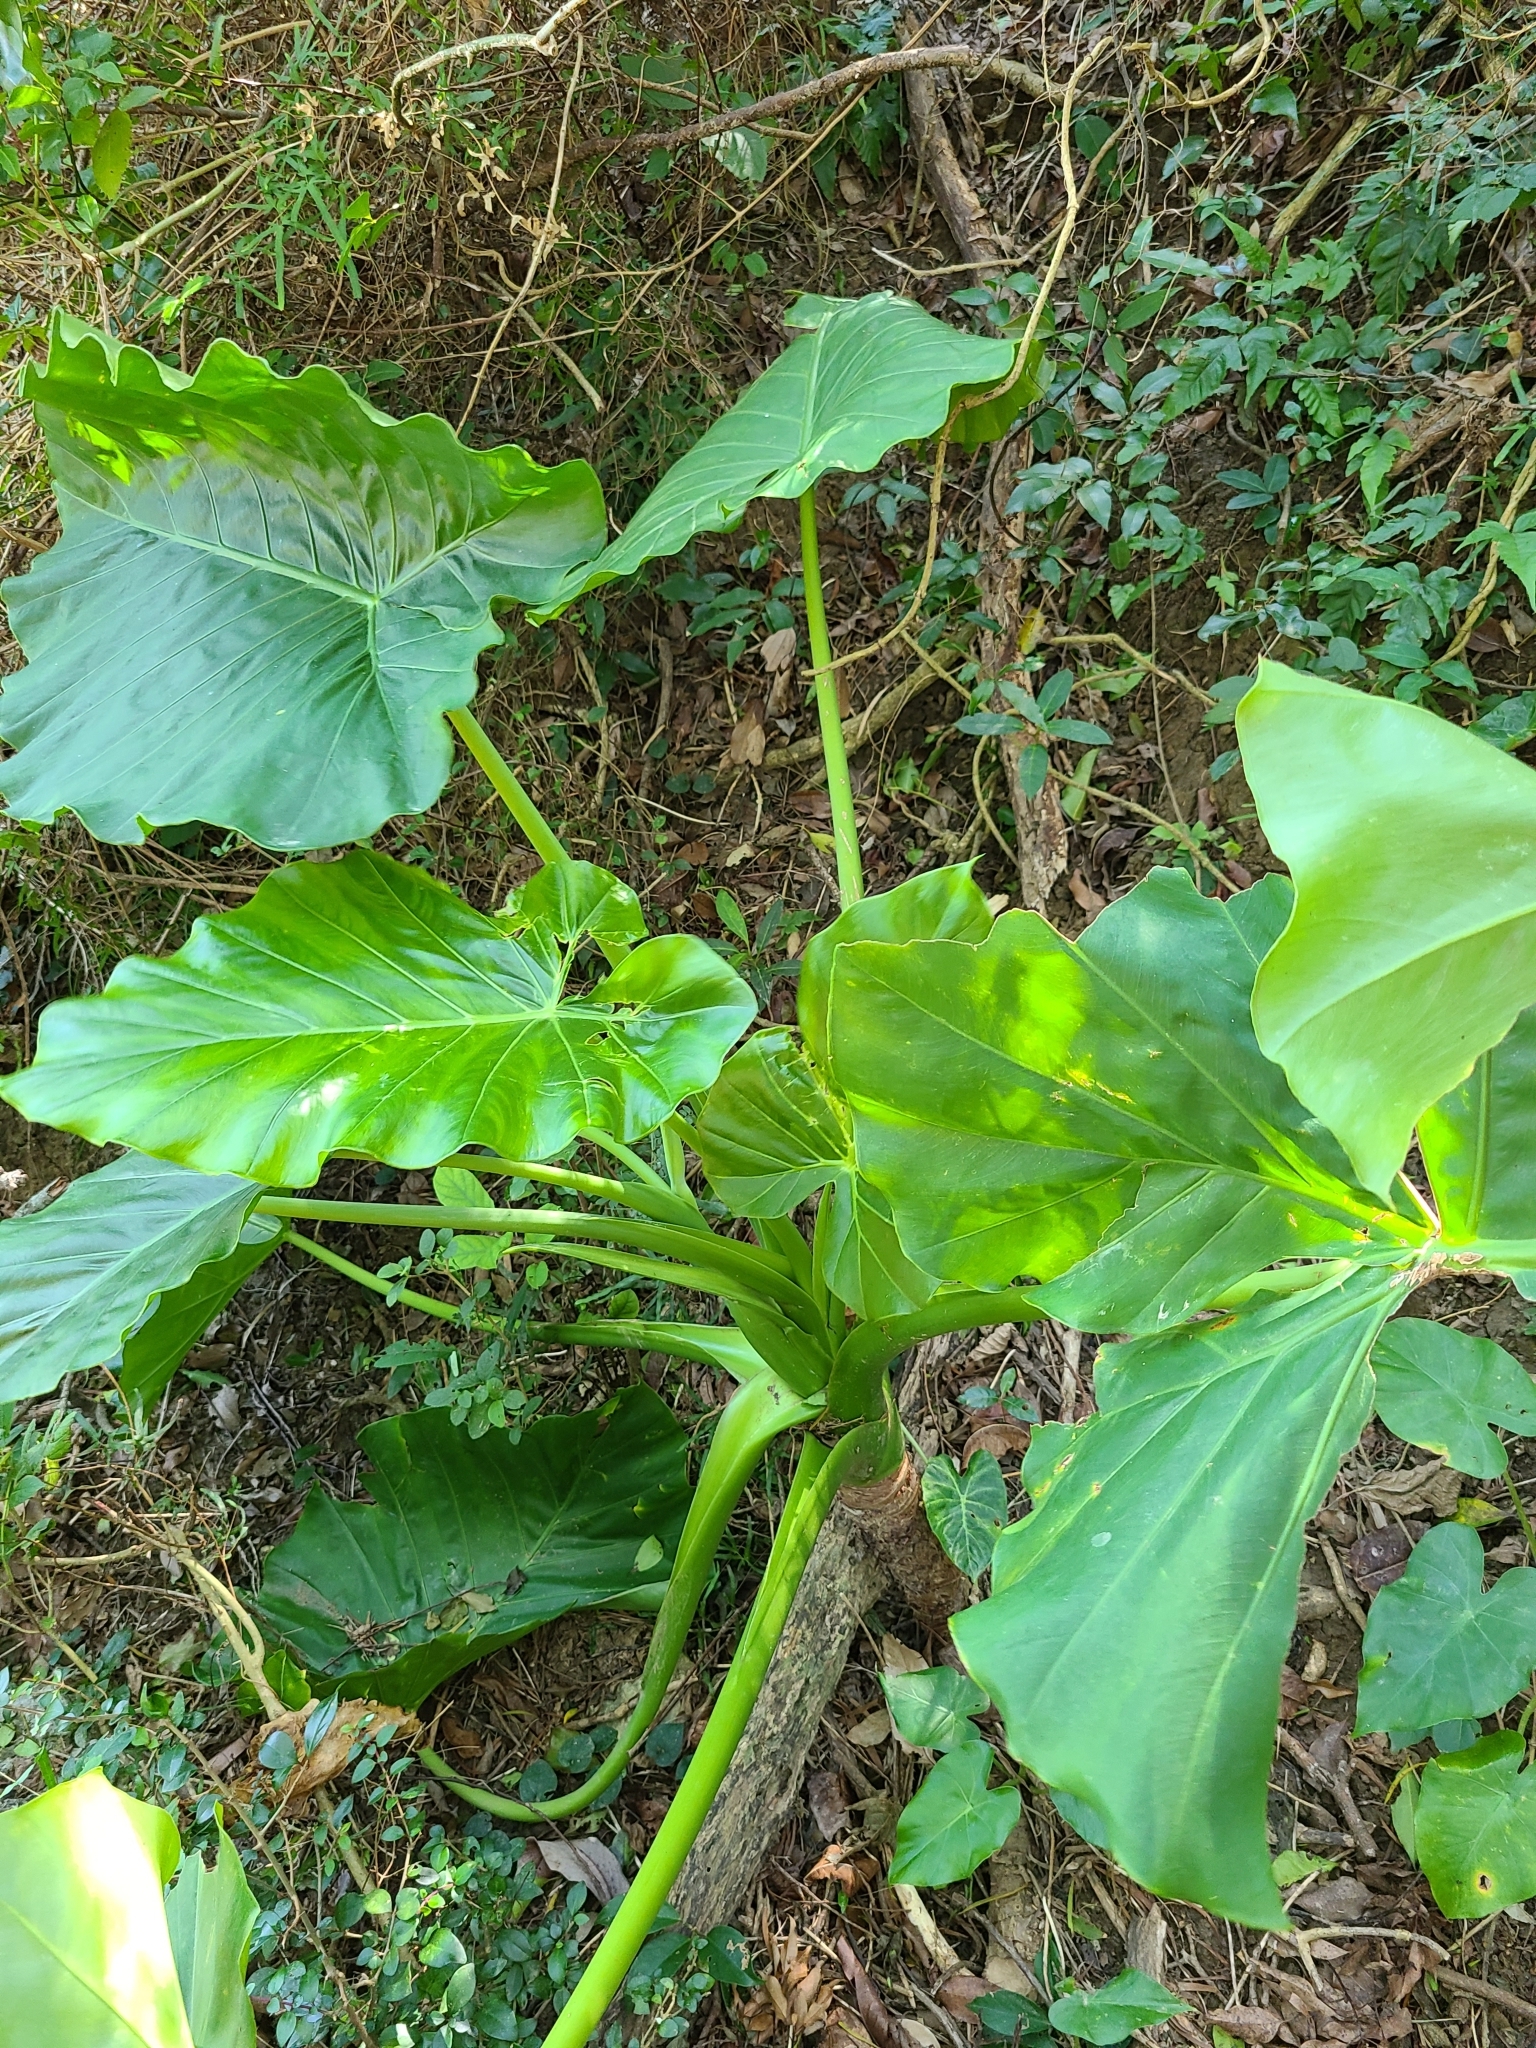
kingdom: Plantae
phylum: Tracheophyta
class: Liliopsida
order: Alismatales
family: Araceae
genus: Alocasia
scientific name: Alocasia odora
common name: Asian taro
